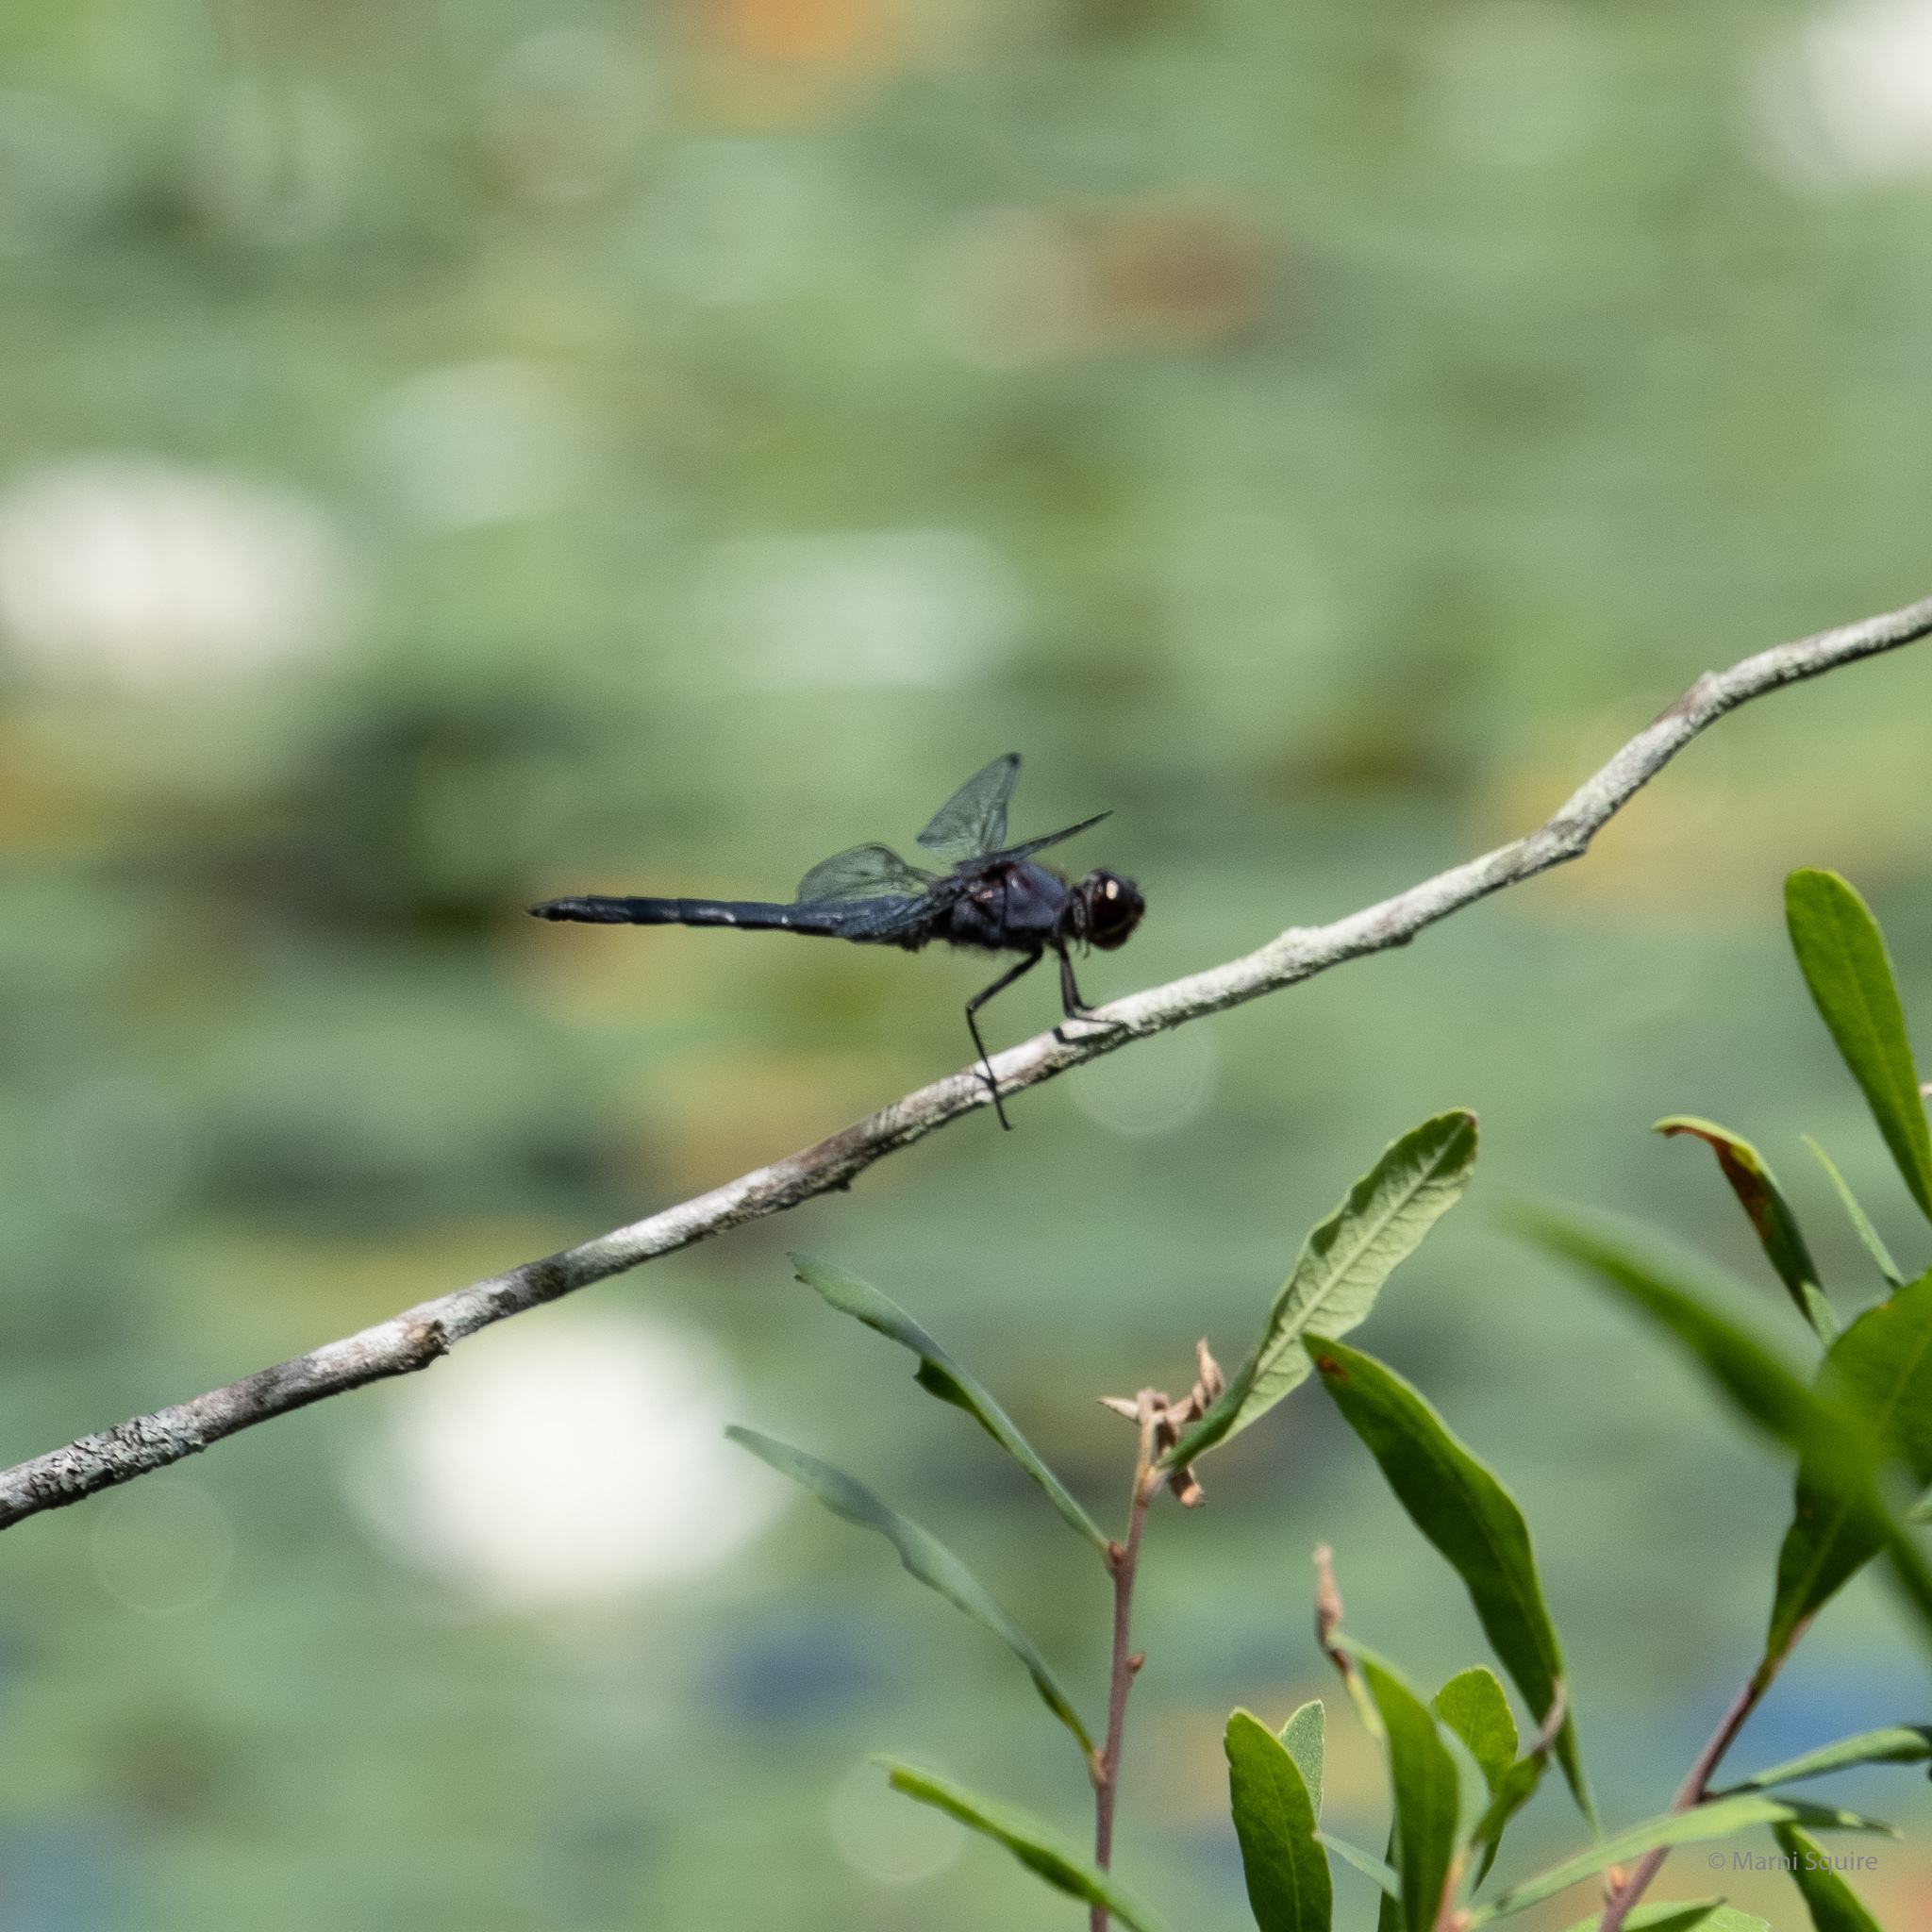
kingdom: Animalia
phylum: Arthropoda
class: Insecta
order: Odonata
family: Libellulidae
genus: Libellula
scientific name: Libellula incesta
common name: Slaty skimmer
